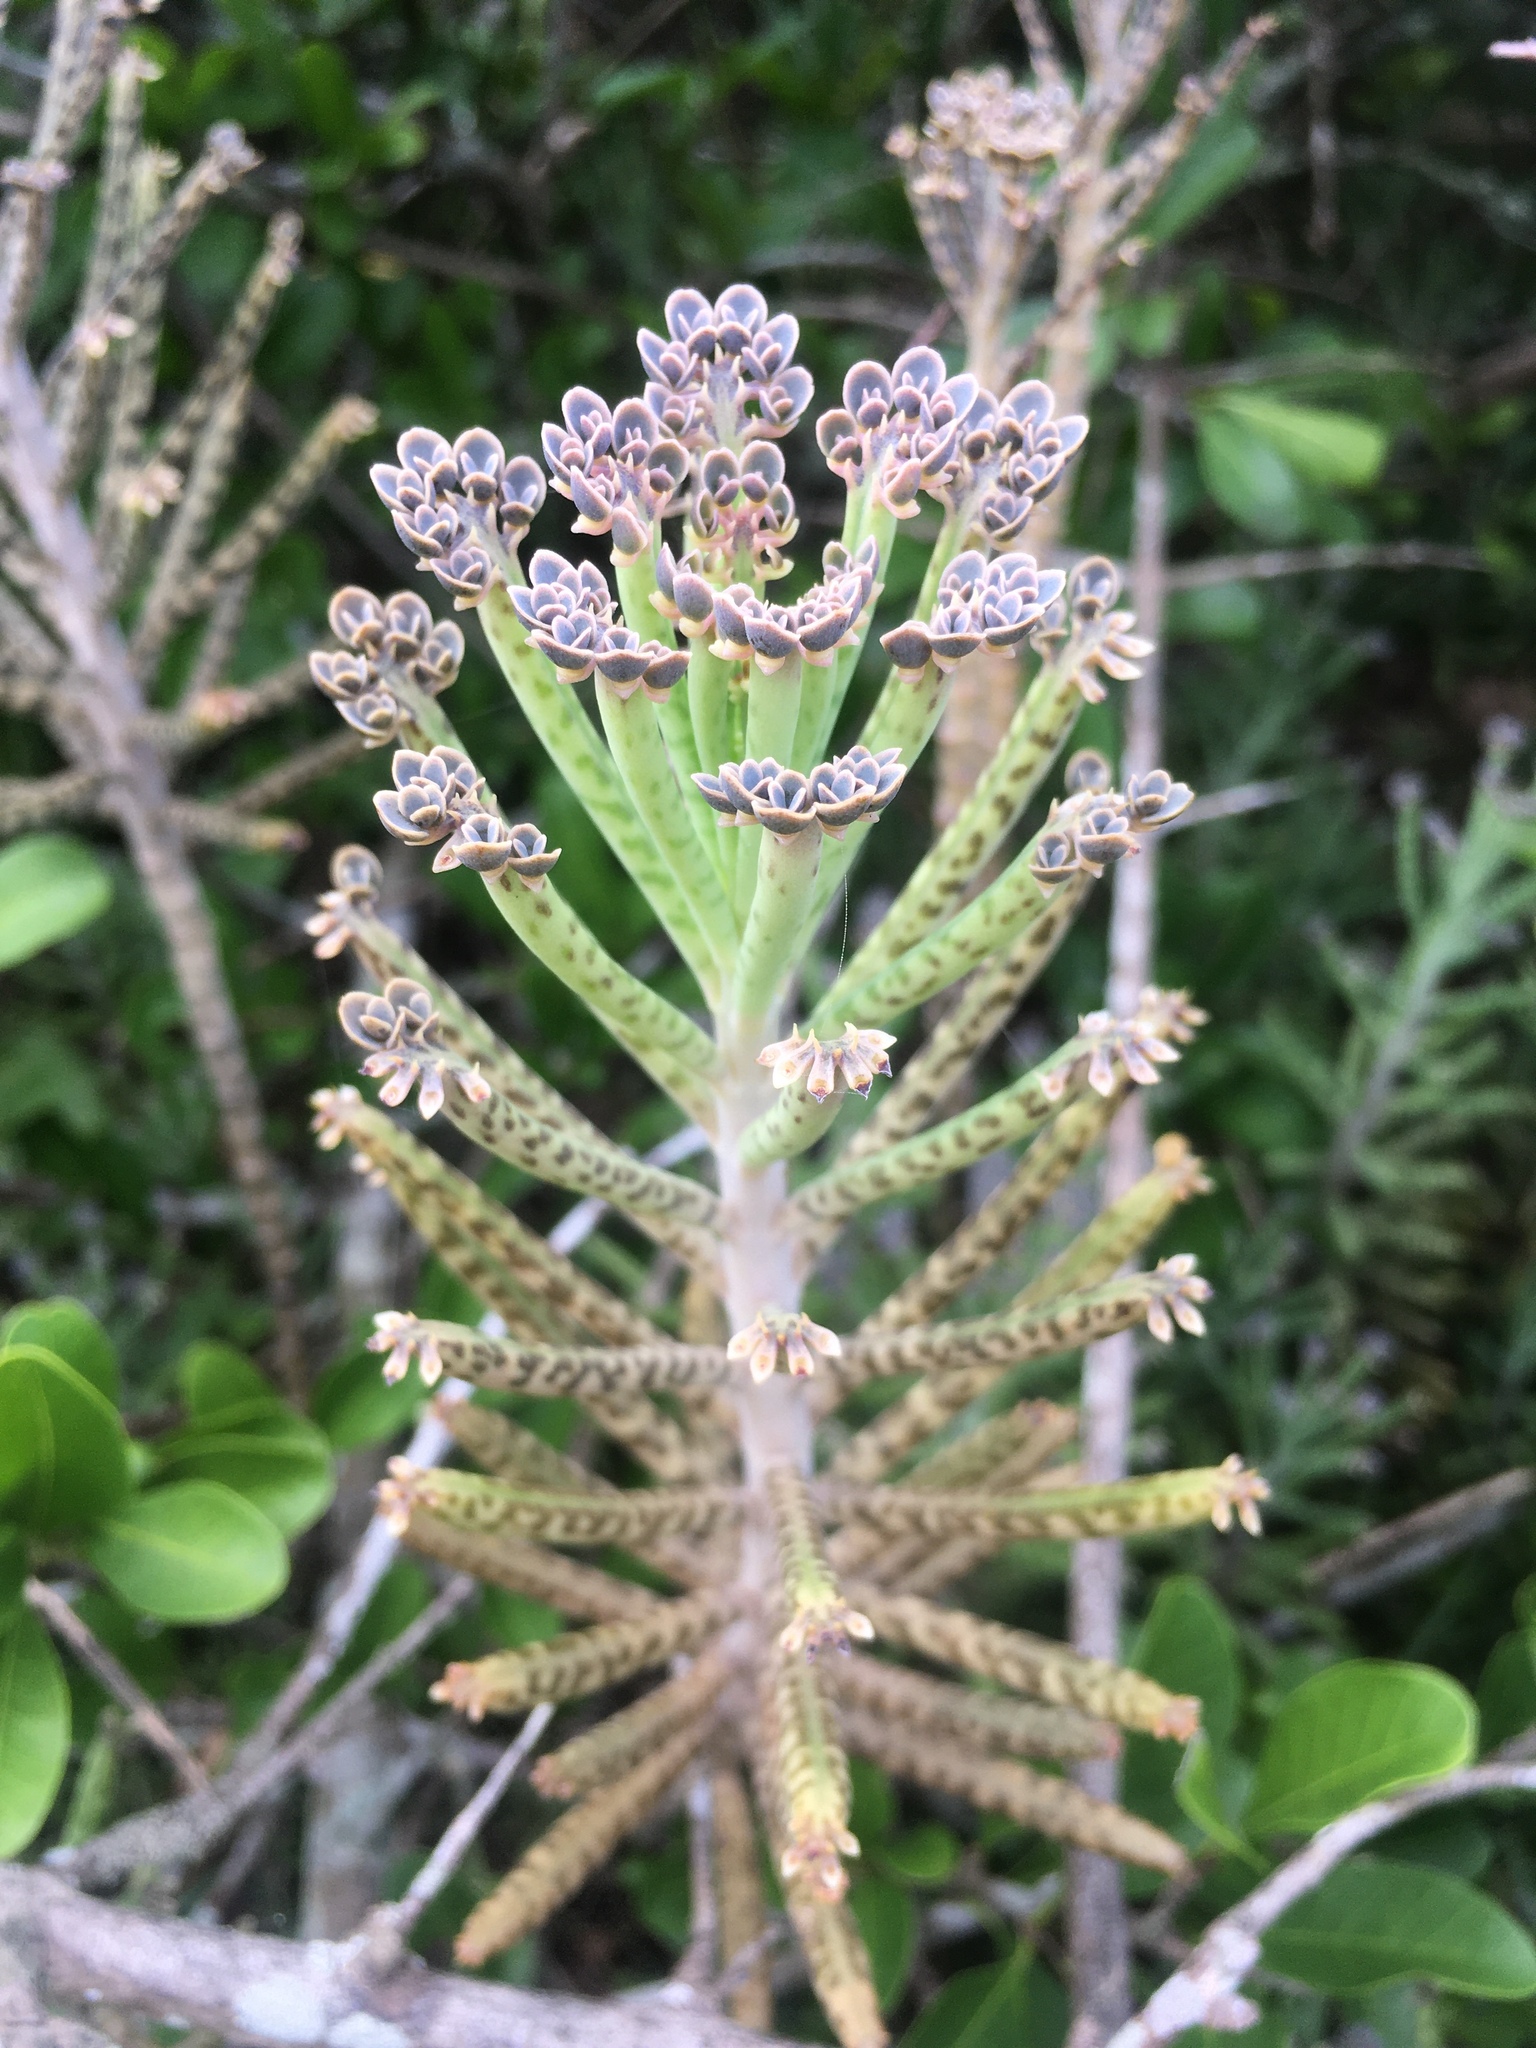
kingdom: Plantae
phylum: Tracheophyta
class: Magnoliopsida
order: Saxifragales
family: Crassulaceae
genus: Kalanchoe
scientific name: Kalanchoe delagoensis
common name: Chandelier plant
